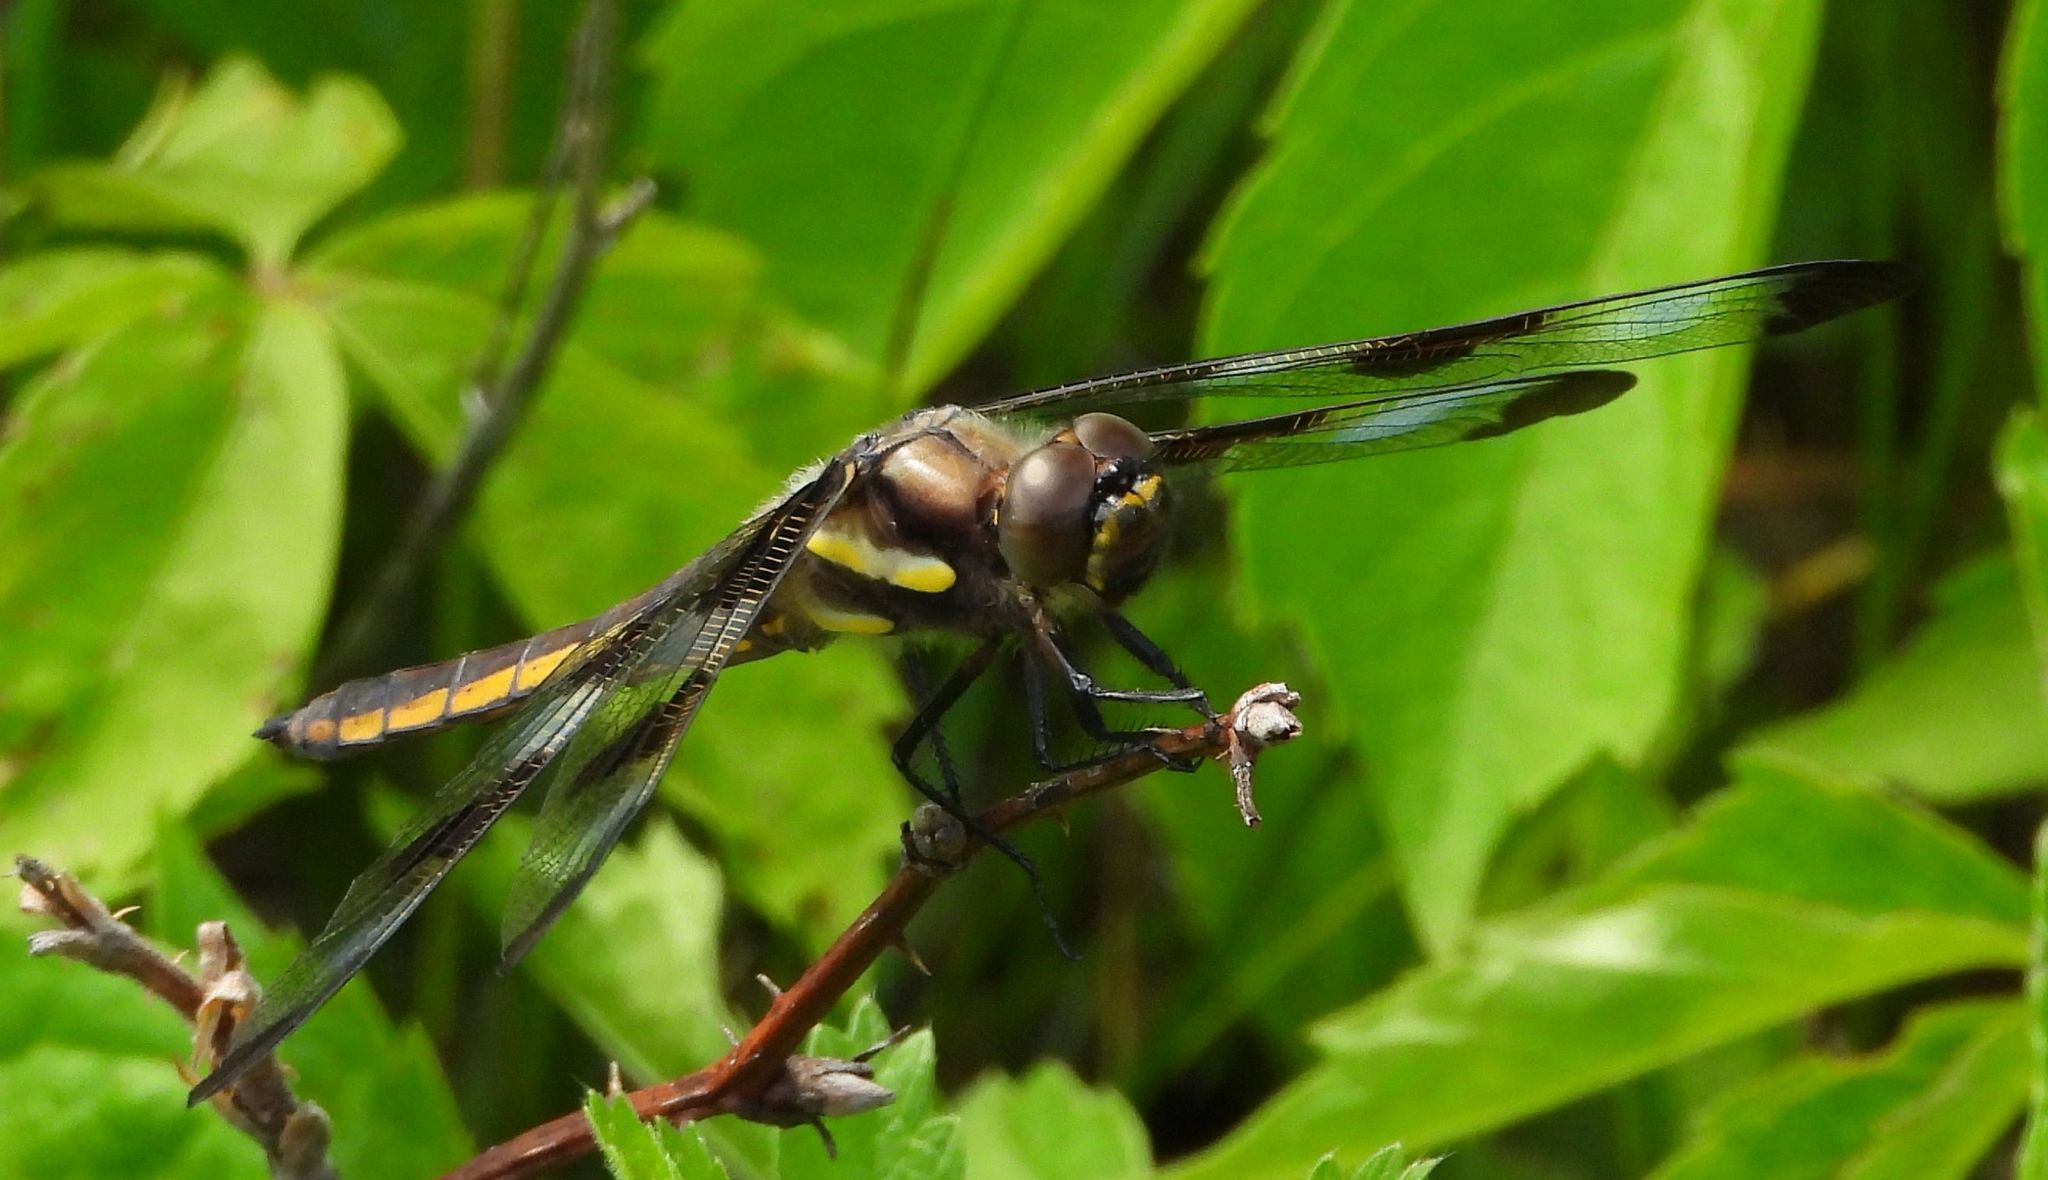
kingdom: Animalia
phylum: Arthropoda
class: Insecta
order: Odonata
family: Libellulidae
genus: Libellula
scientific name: Libellula pulchella
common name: Twelve-spotted skimmer
